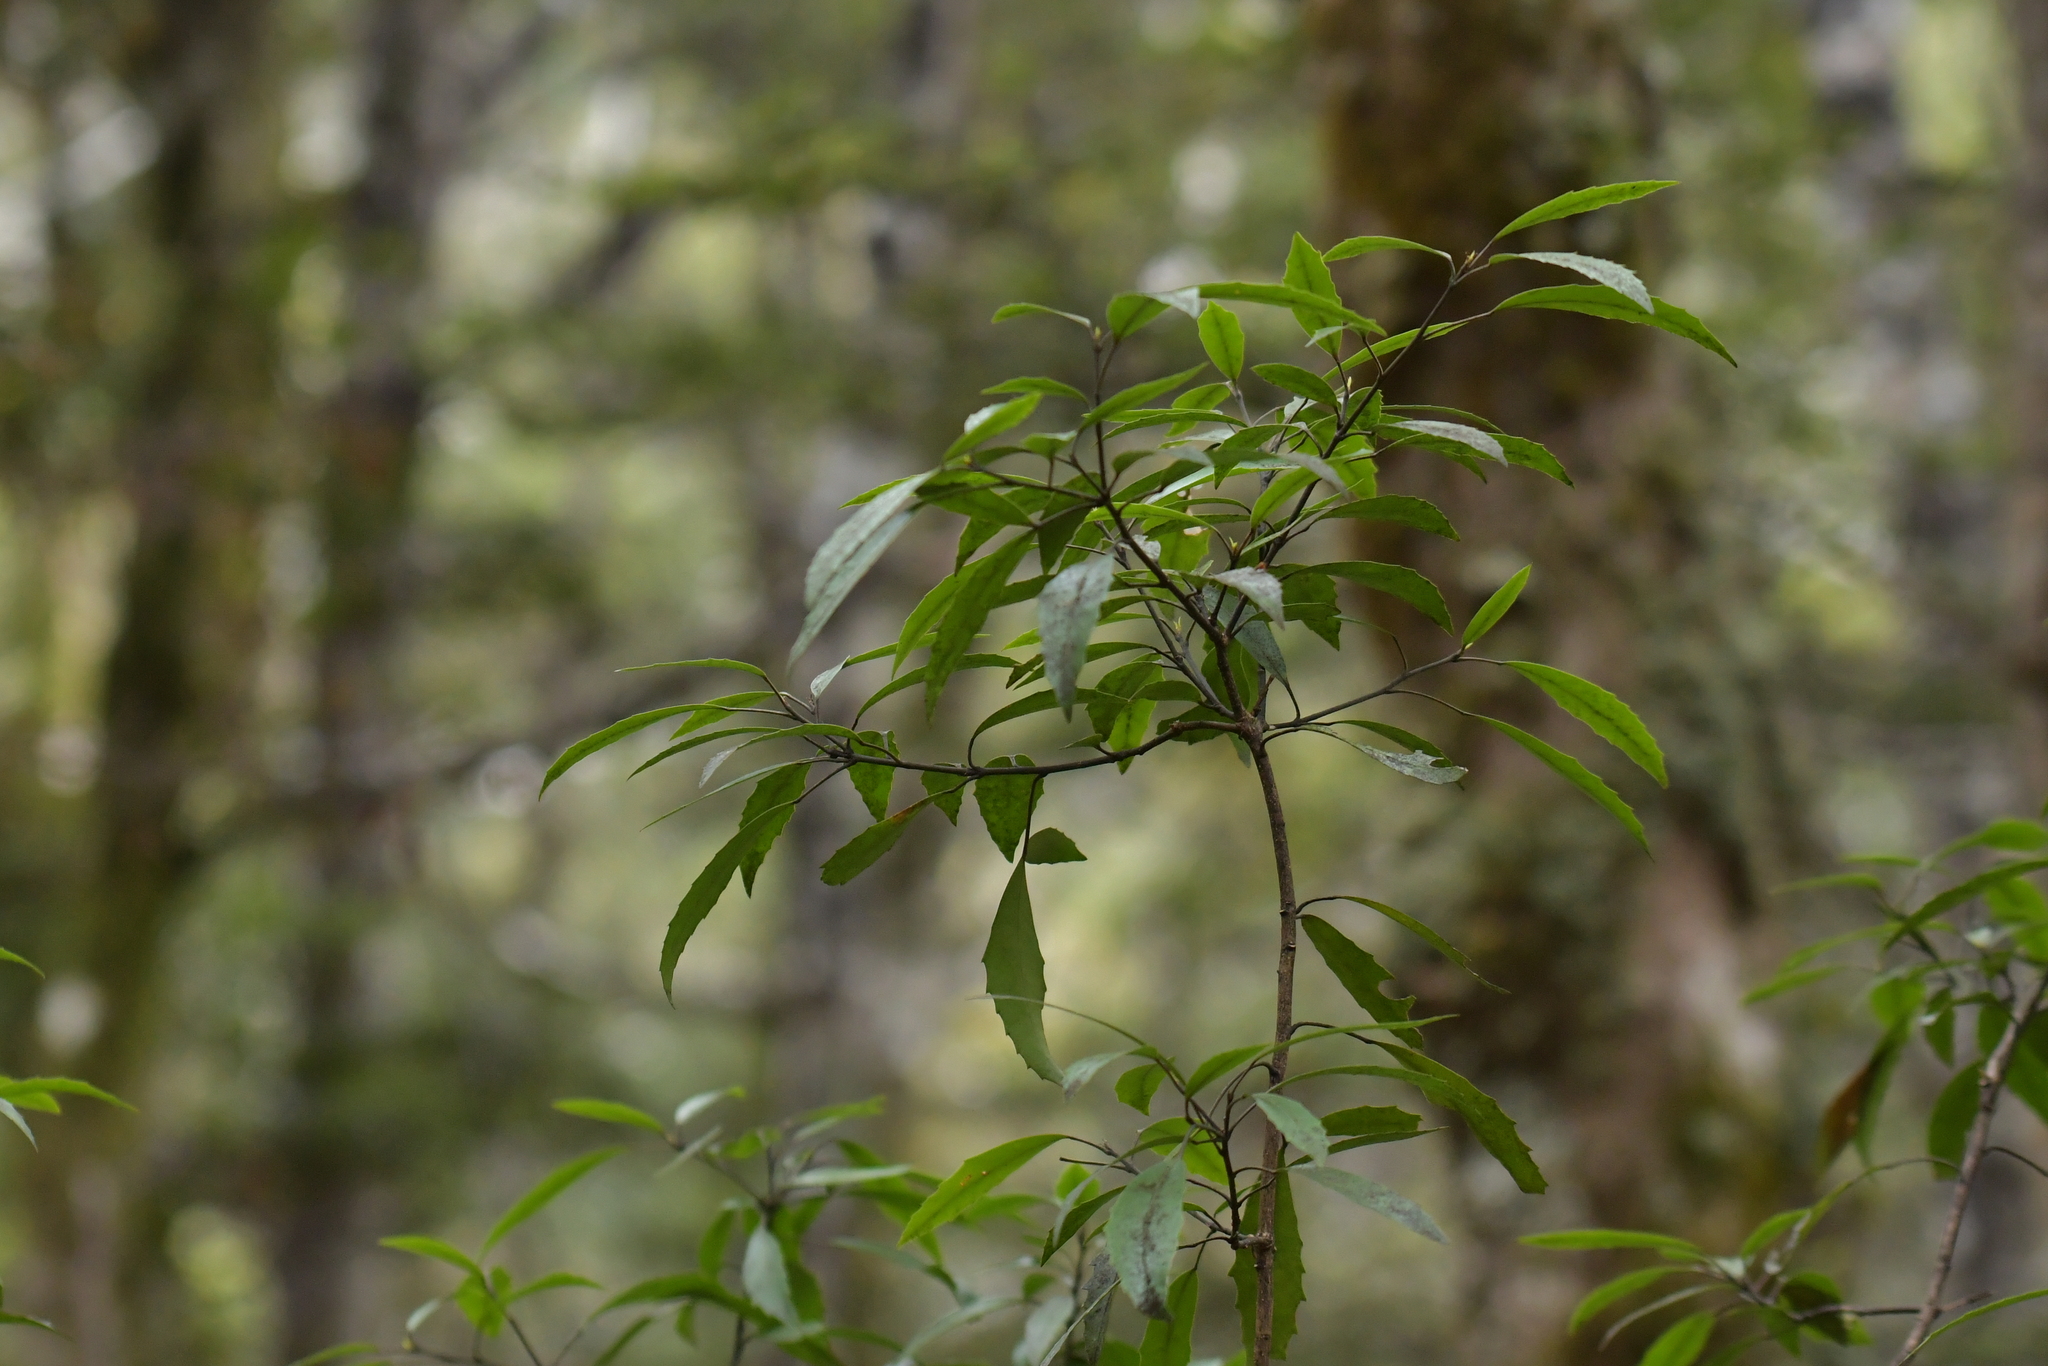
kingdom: Plantae
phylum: Tracheophyta
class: Magnoliopsida
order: Apiales
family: Araliaceae
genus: Raukaua
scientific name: Raukaua simplex
